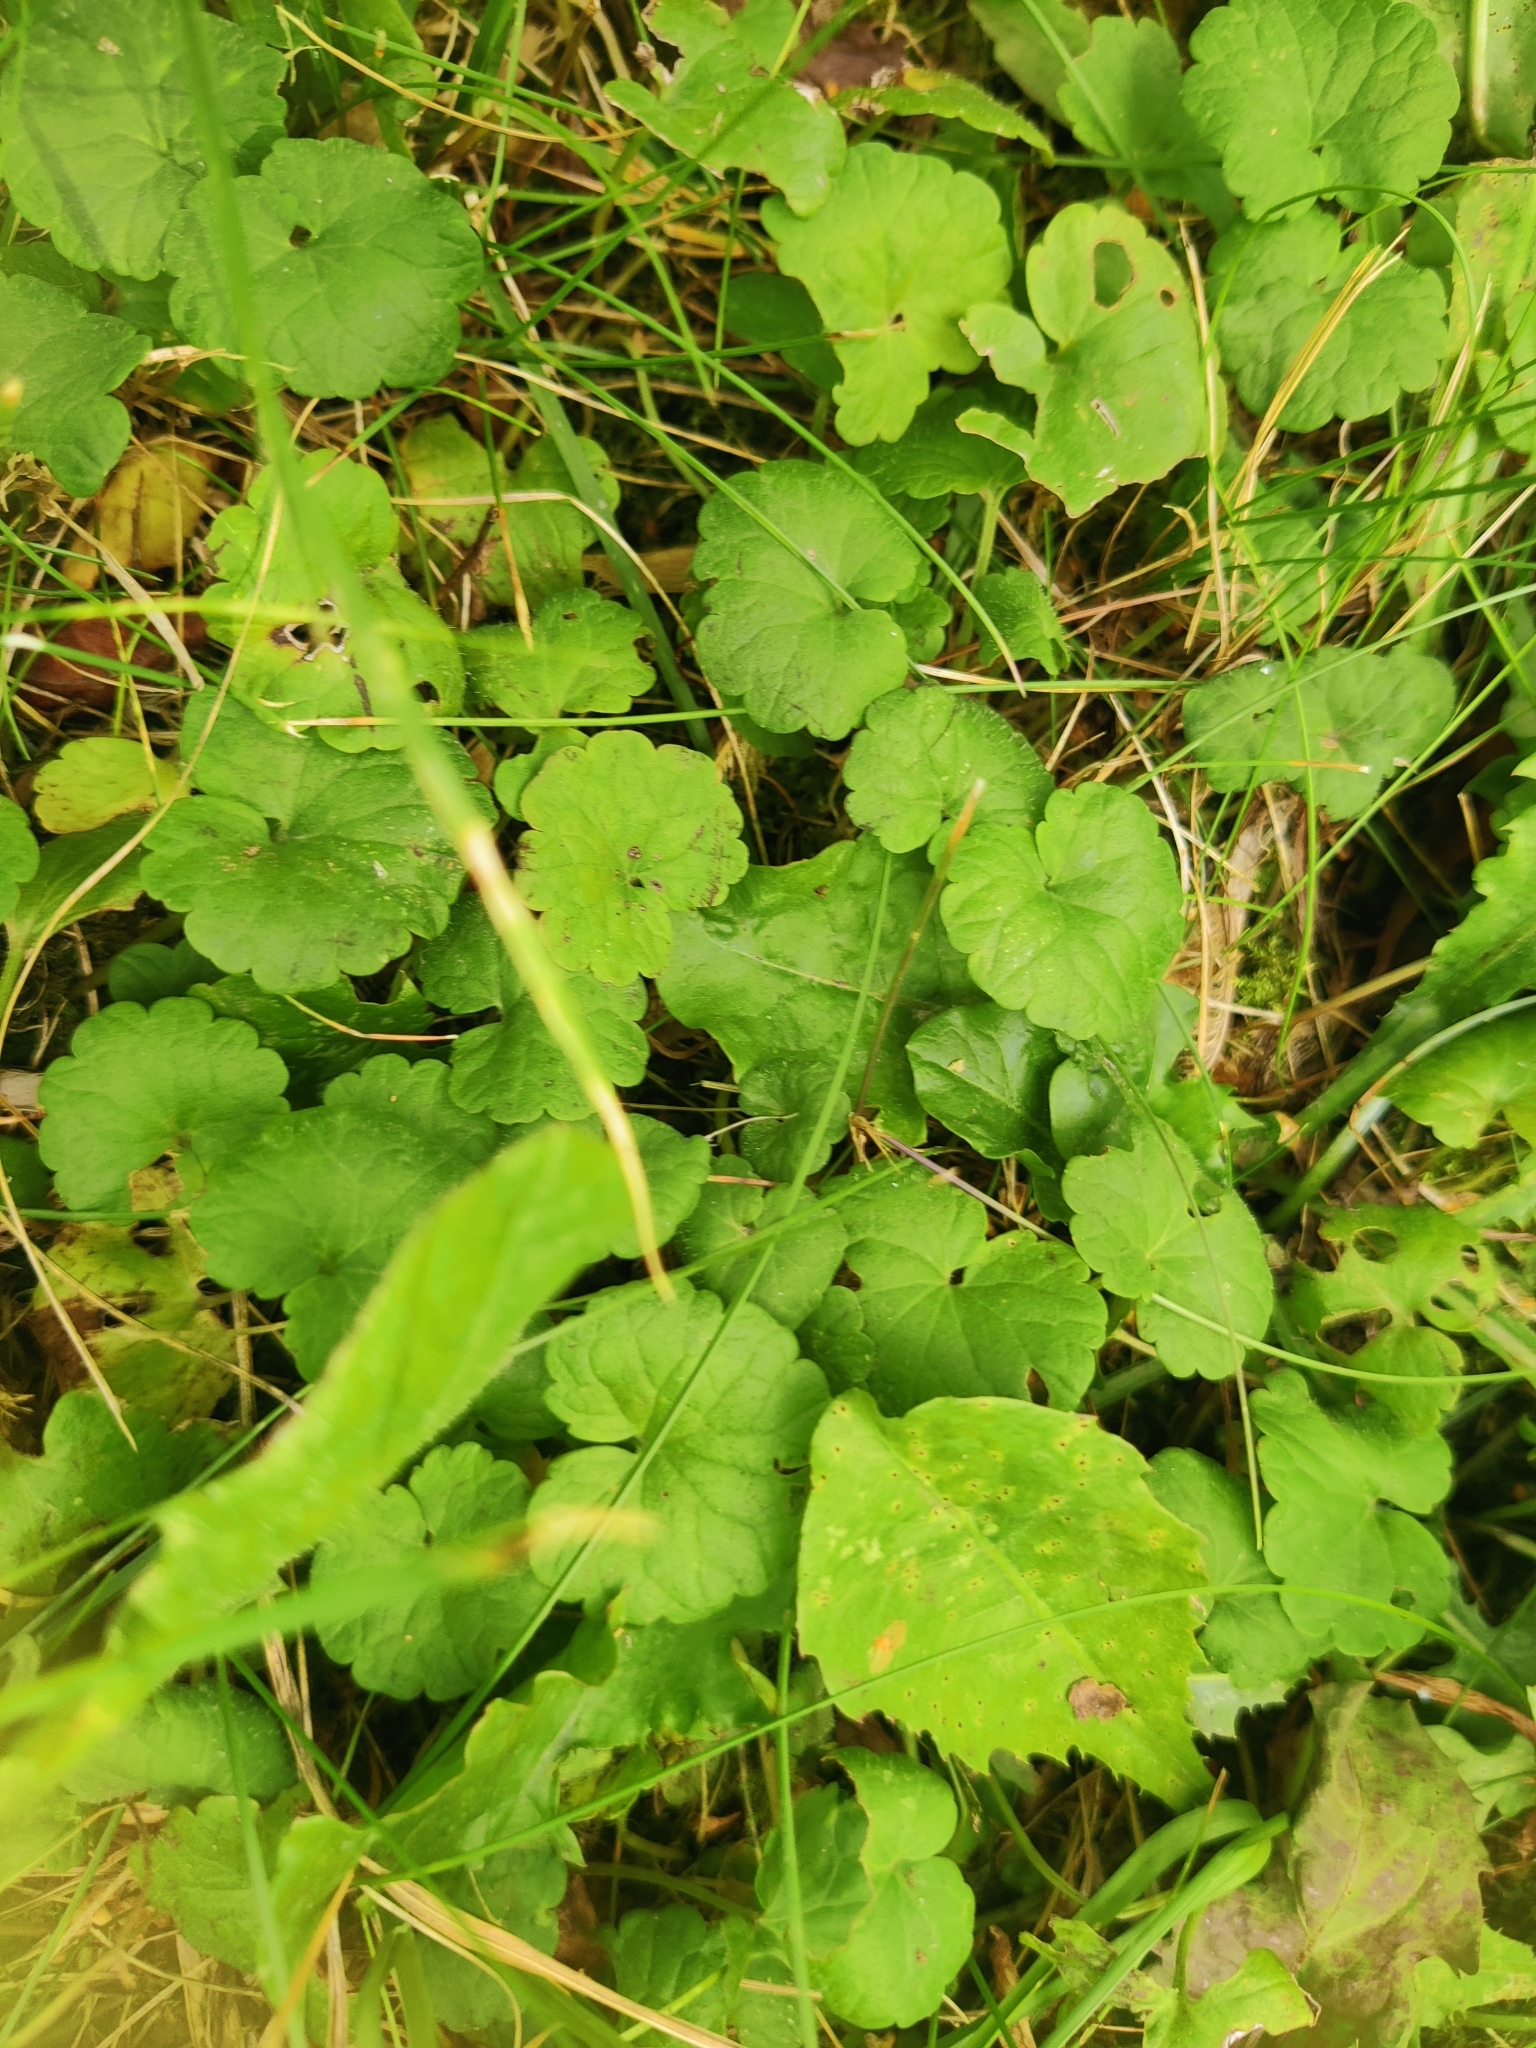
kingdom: Plantae
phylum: Tracheophyta
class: Magnoliopsida
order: Lamiales
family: Lamiaceae
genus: Glechoma
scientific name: Glechoma hederacea
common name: Ground ivy
